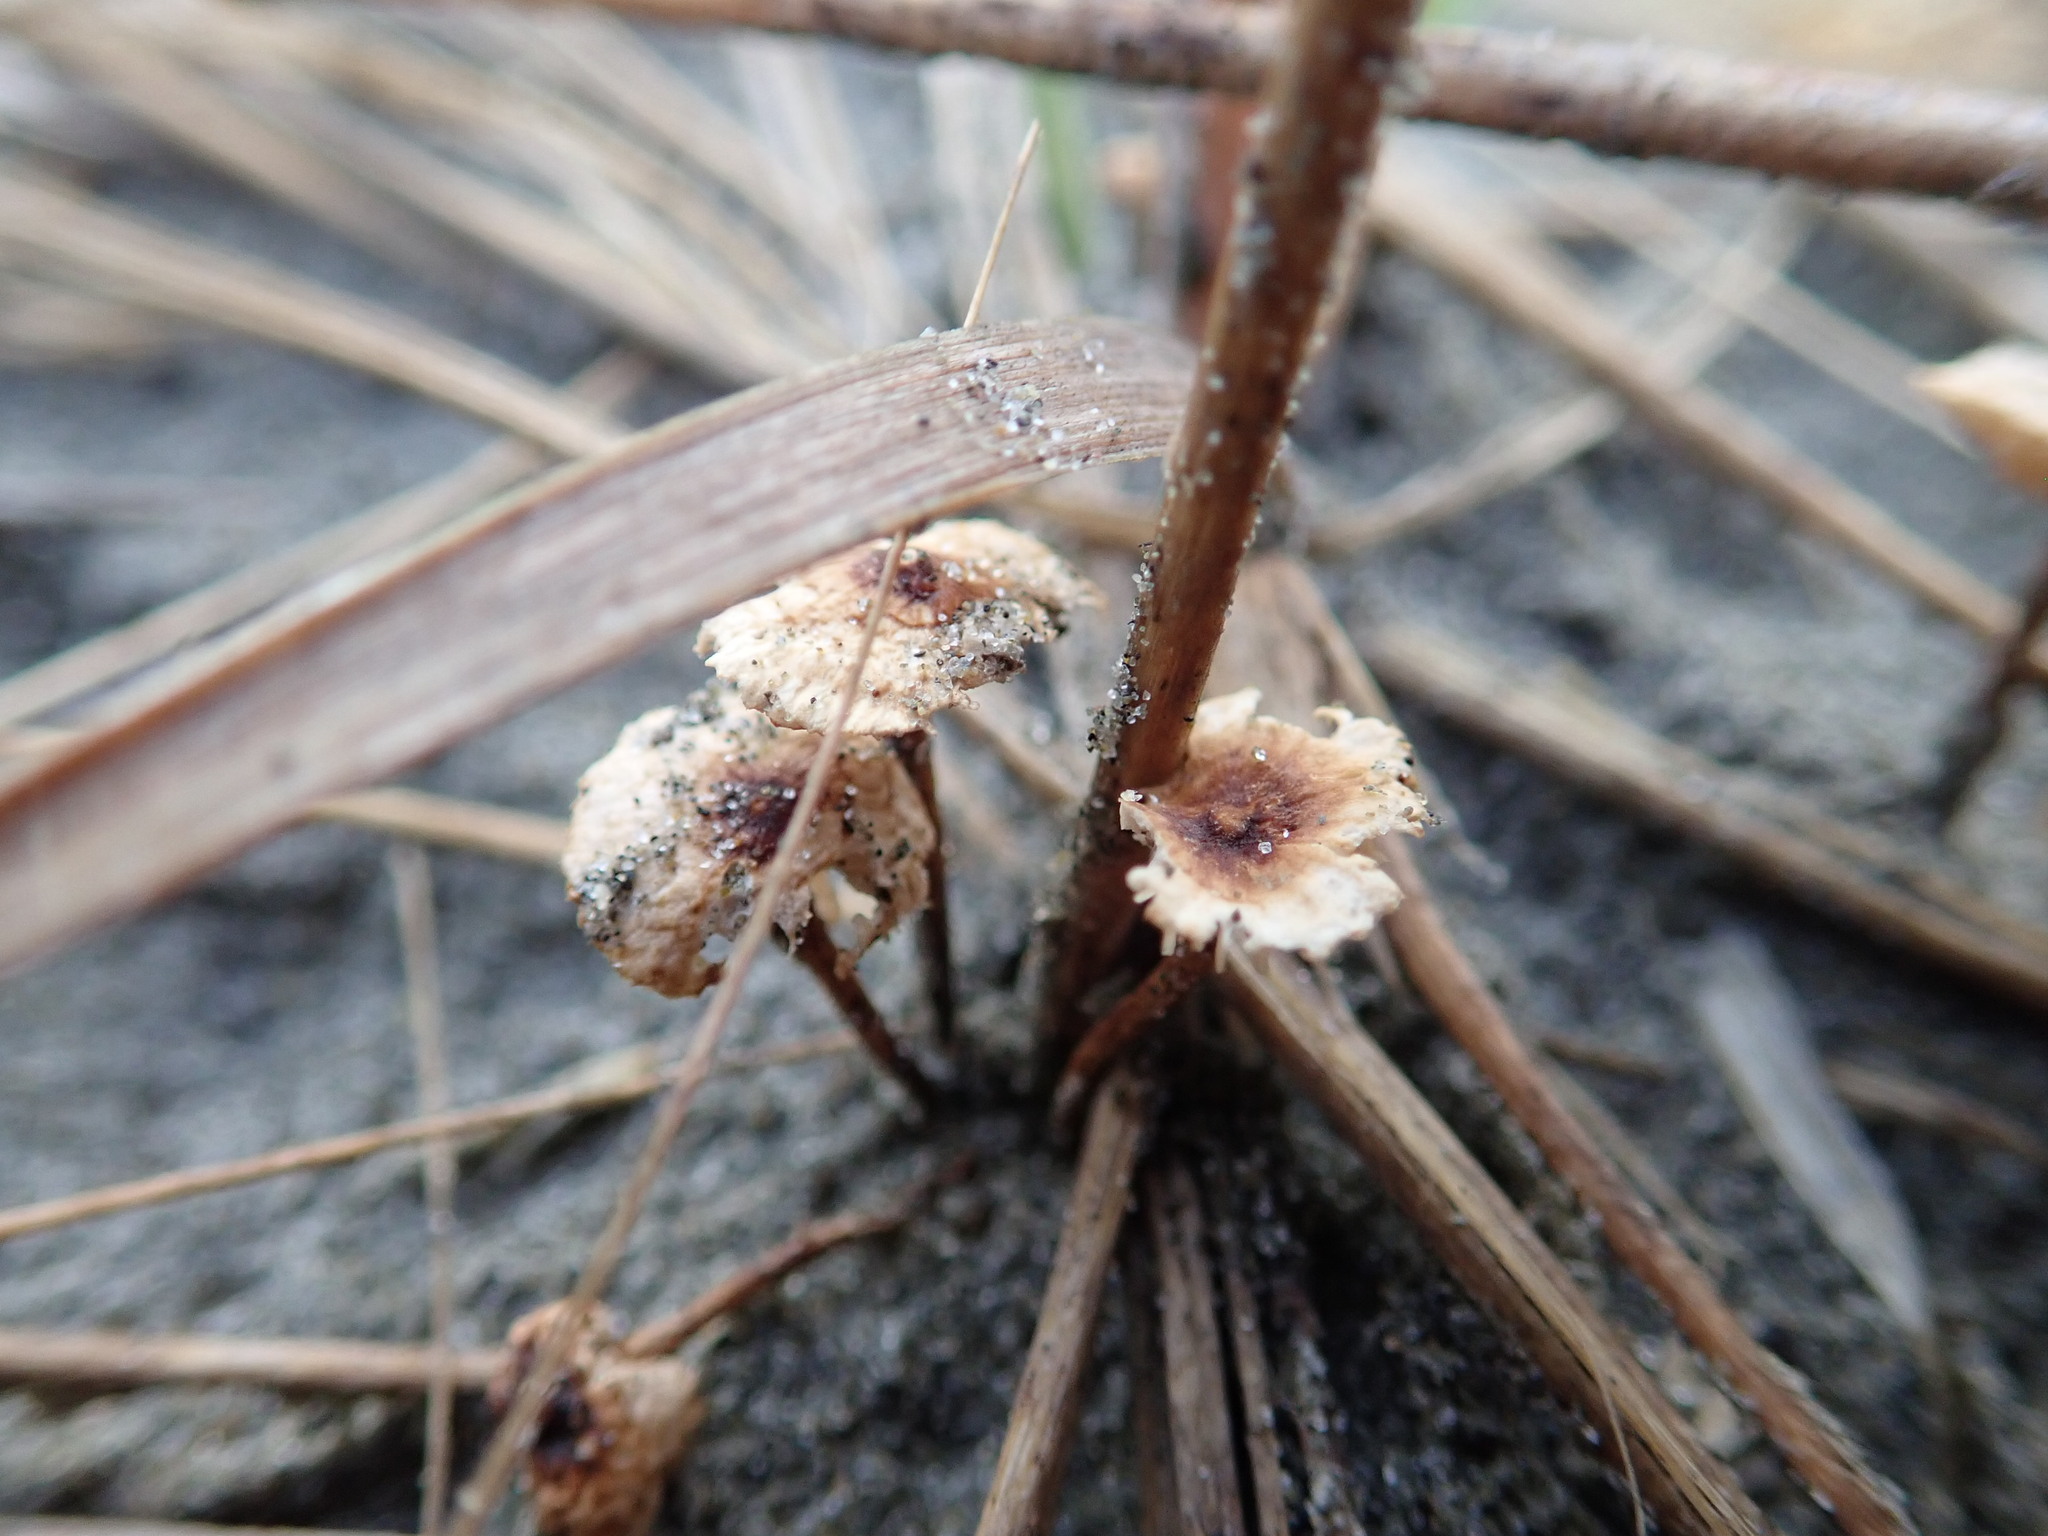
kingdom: Fungi
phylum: Basidiomycota
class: Agaricomycetes
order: Agaricales
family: Marasmiaceae
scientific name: Marasmiaceae
